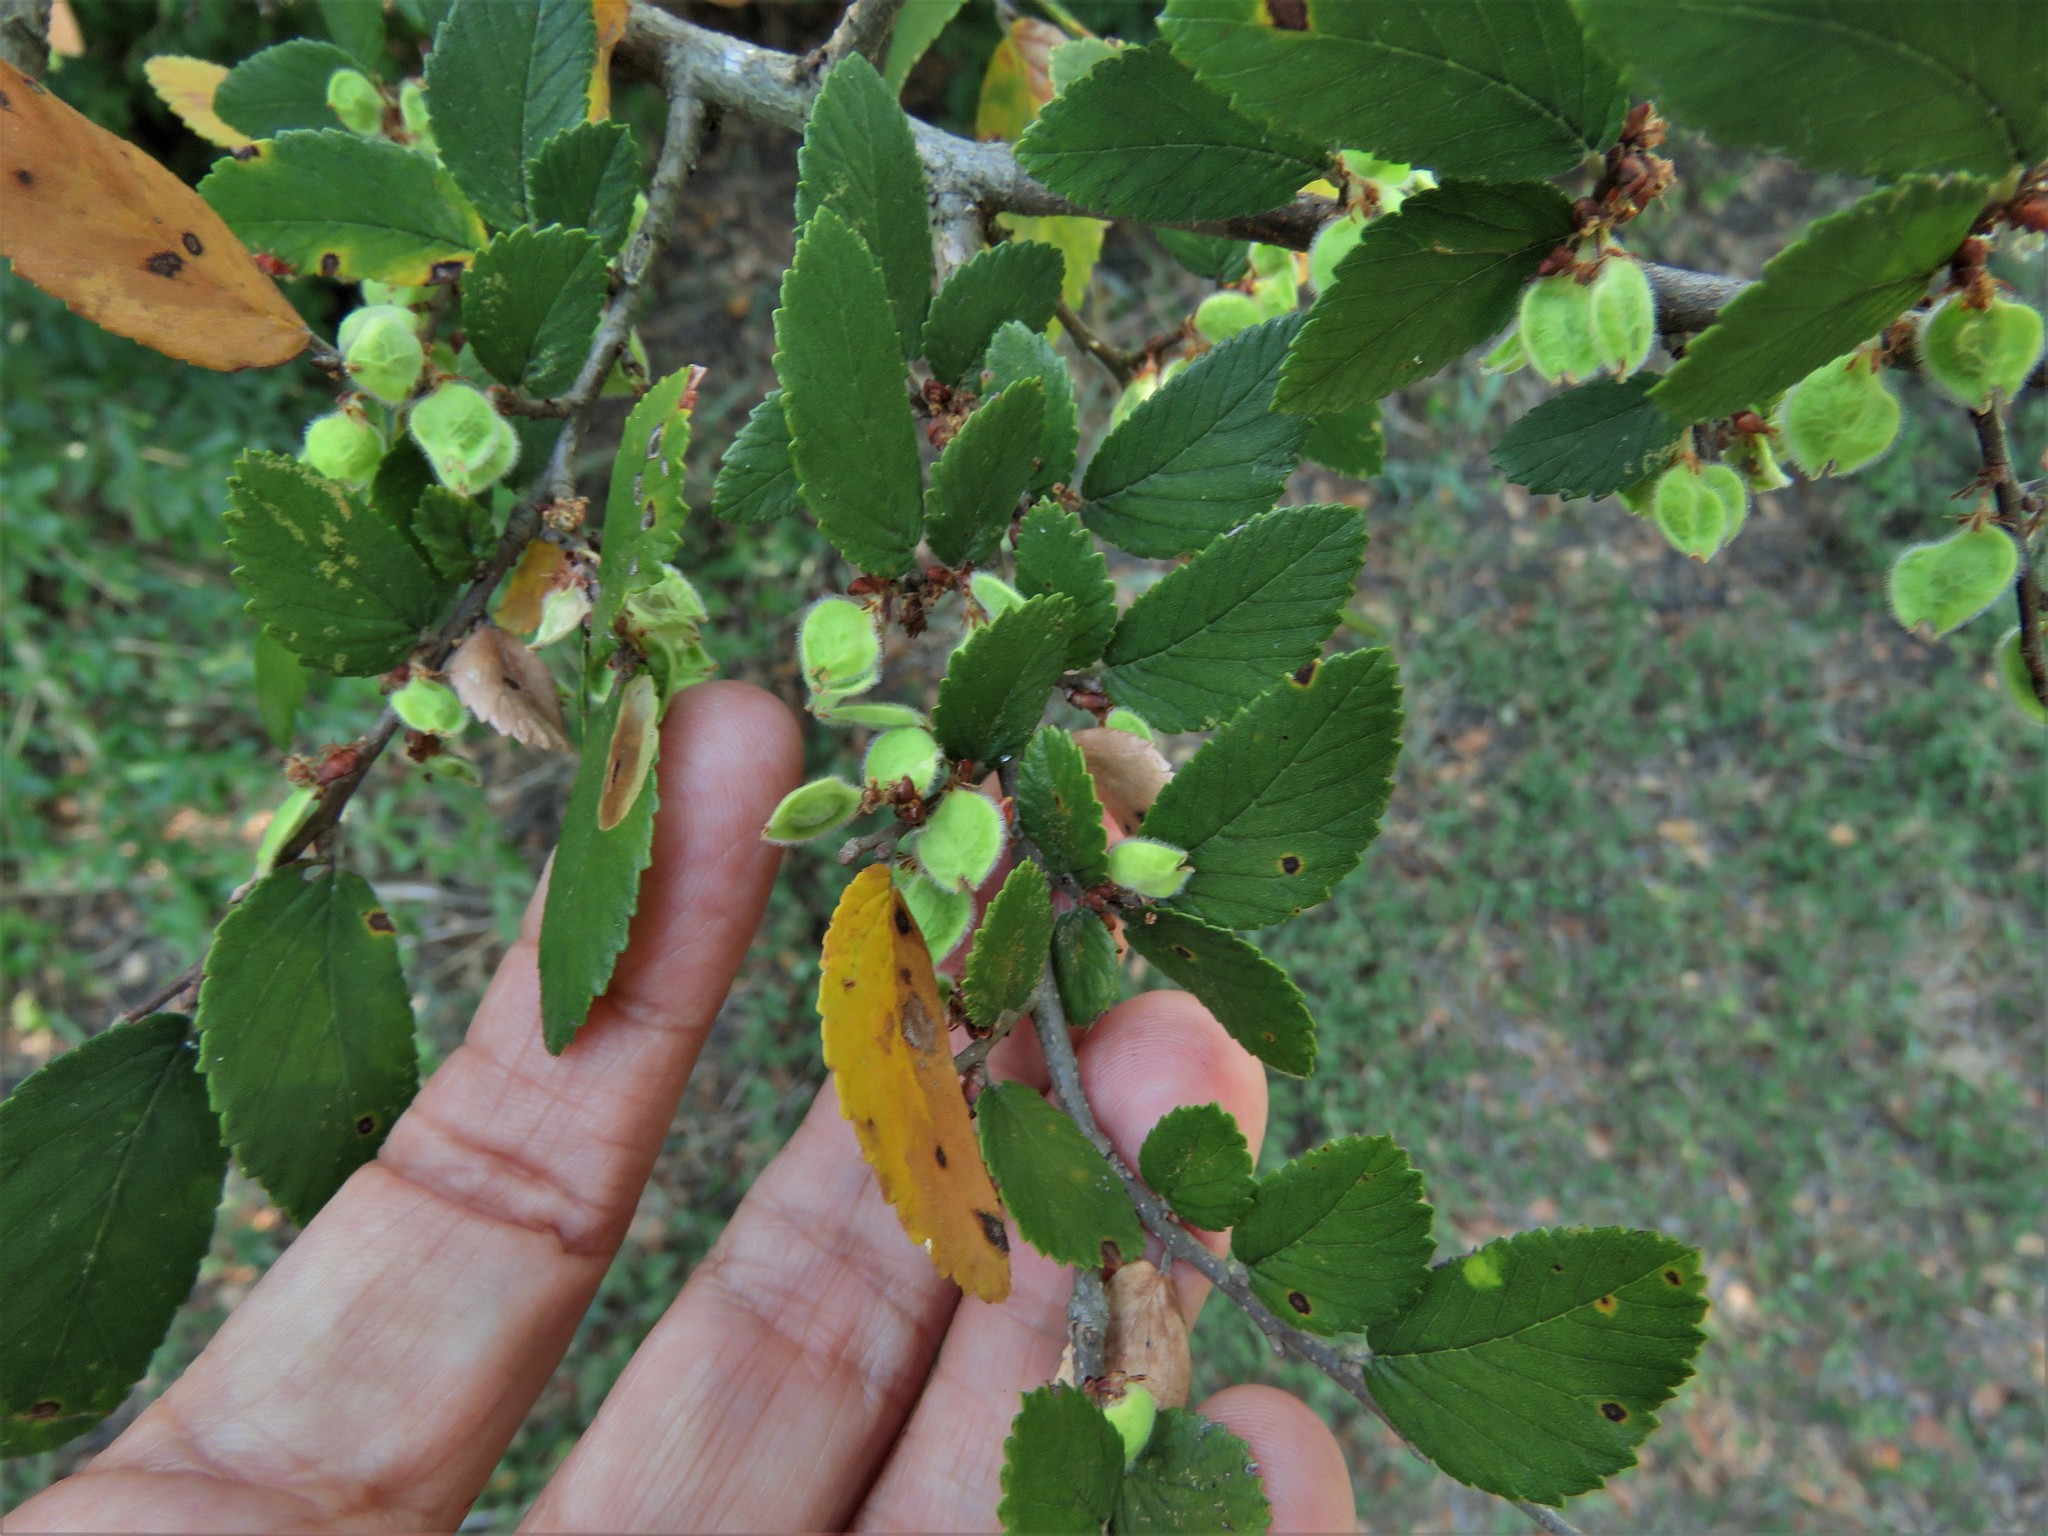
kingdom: Plantae
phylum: Tracheophyta
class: Magnoliopsida
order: Rosales
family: Ulmaceae
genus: Ulmus
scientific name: Ulmus crassifolia
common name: Basket elm
